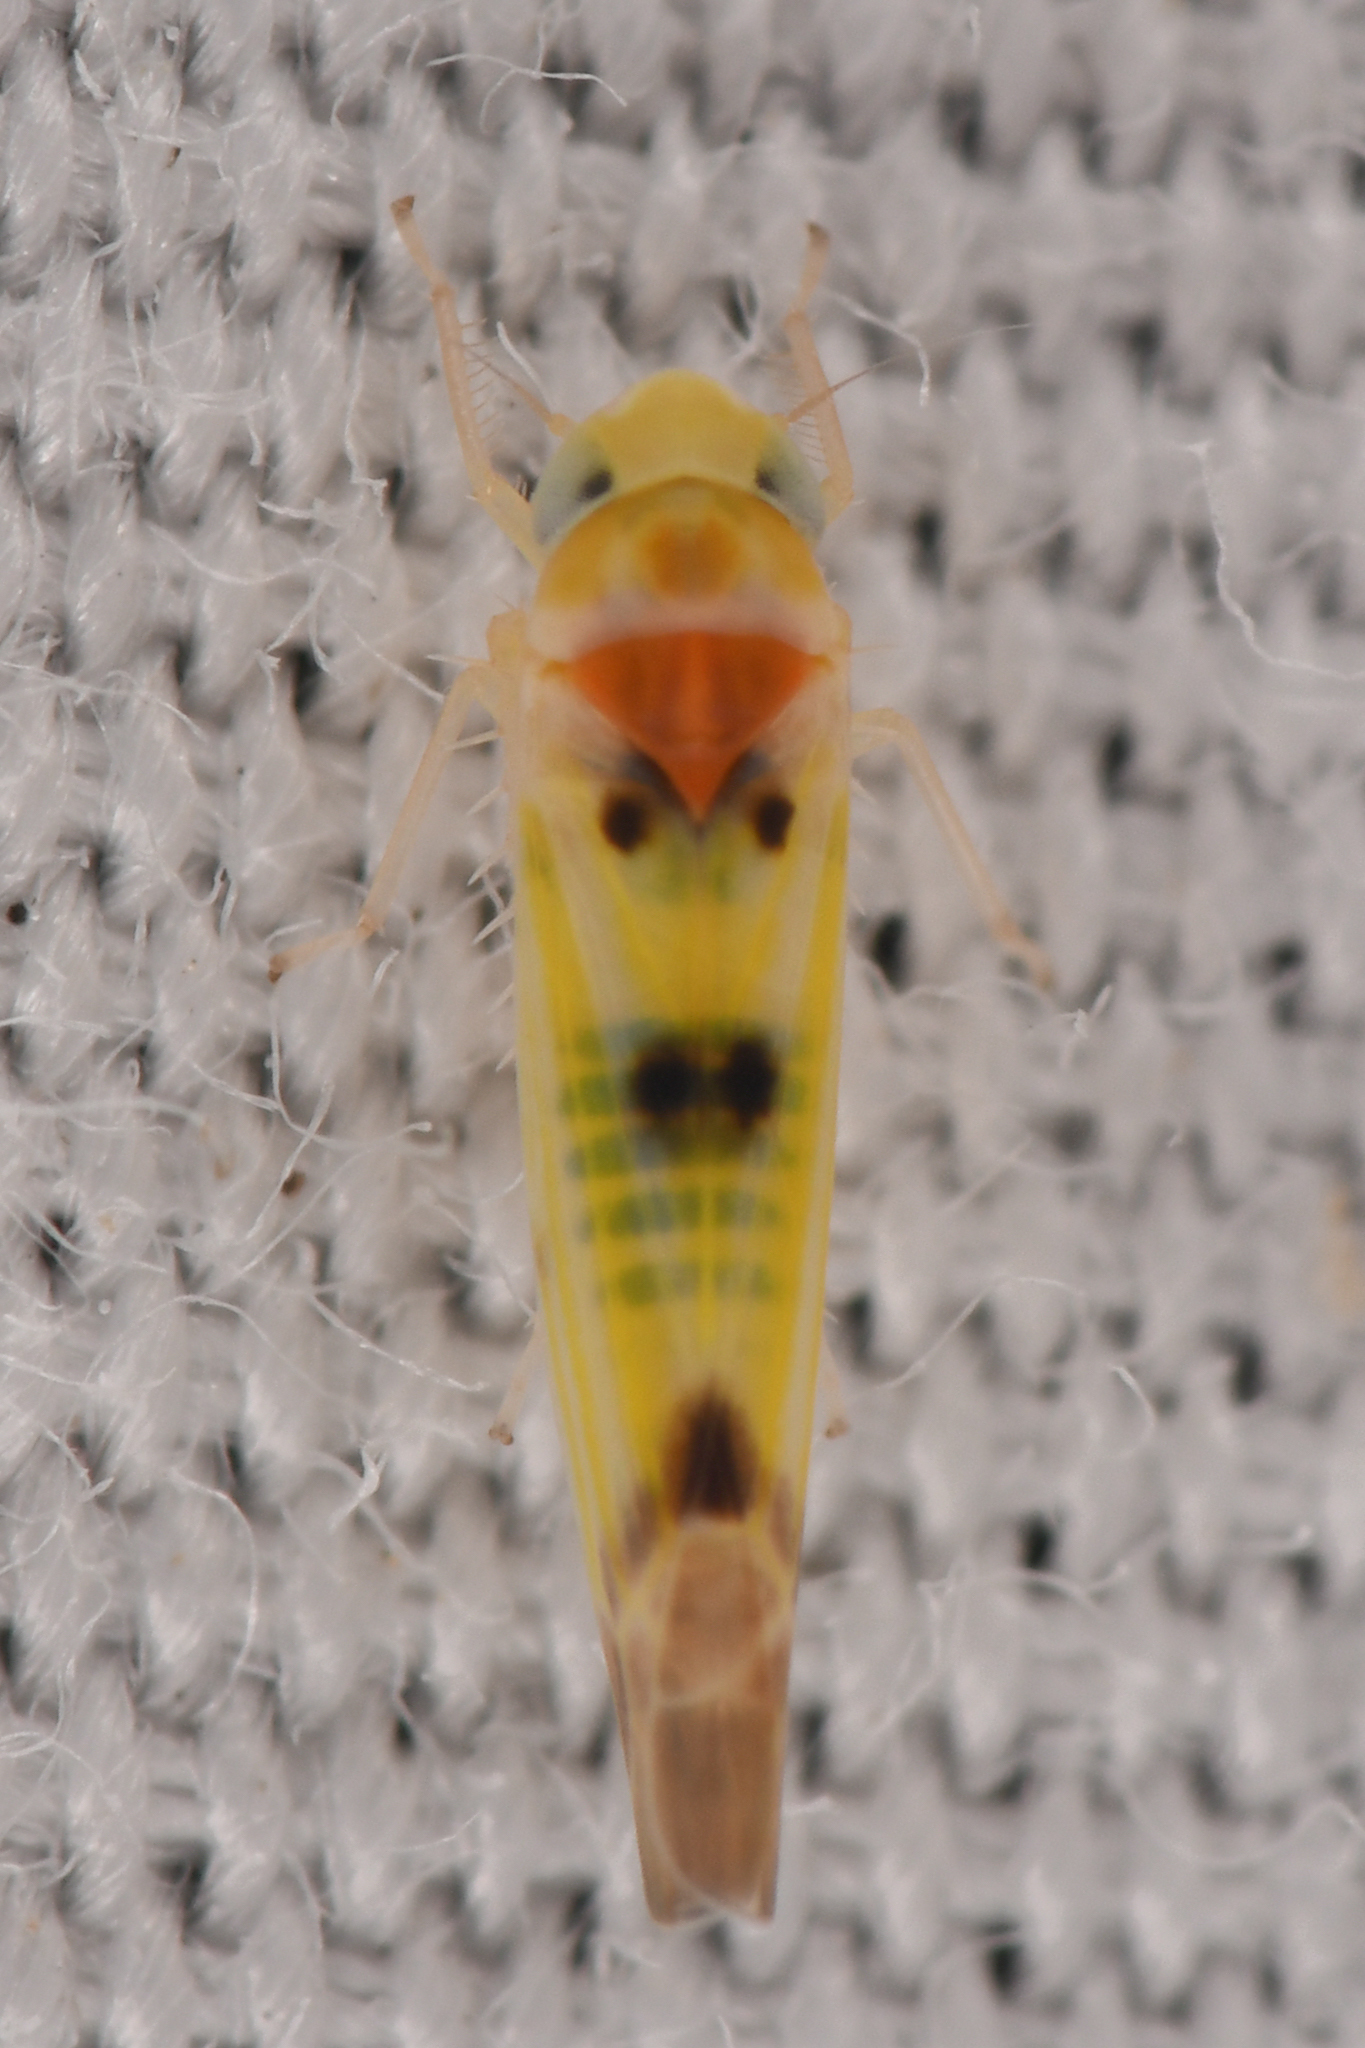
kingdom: Animalia
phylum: Arthropoda
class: Insecta
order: Hemiptera
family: Cicadellidae
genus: Mcateeana
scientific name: Mcateeana sexnotata
